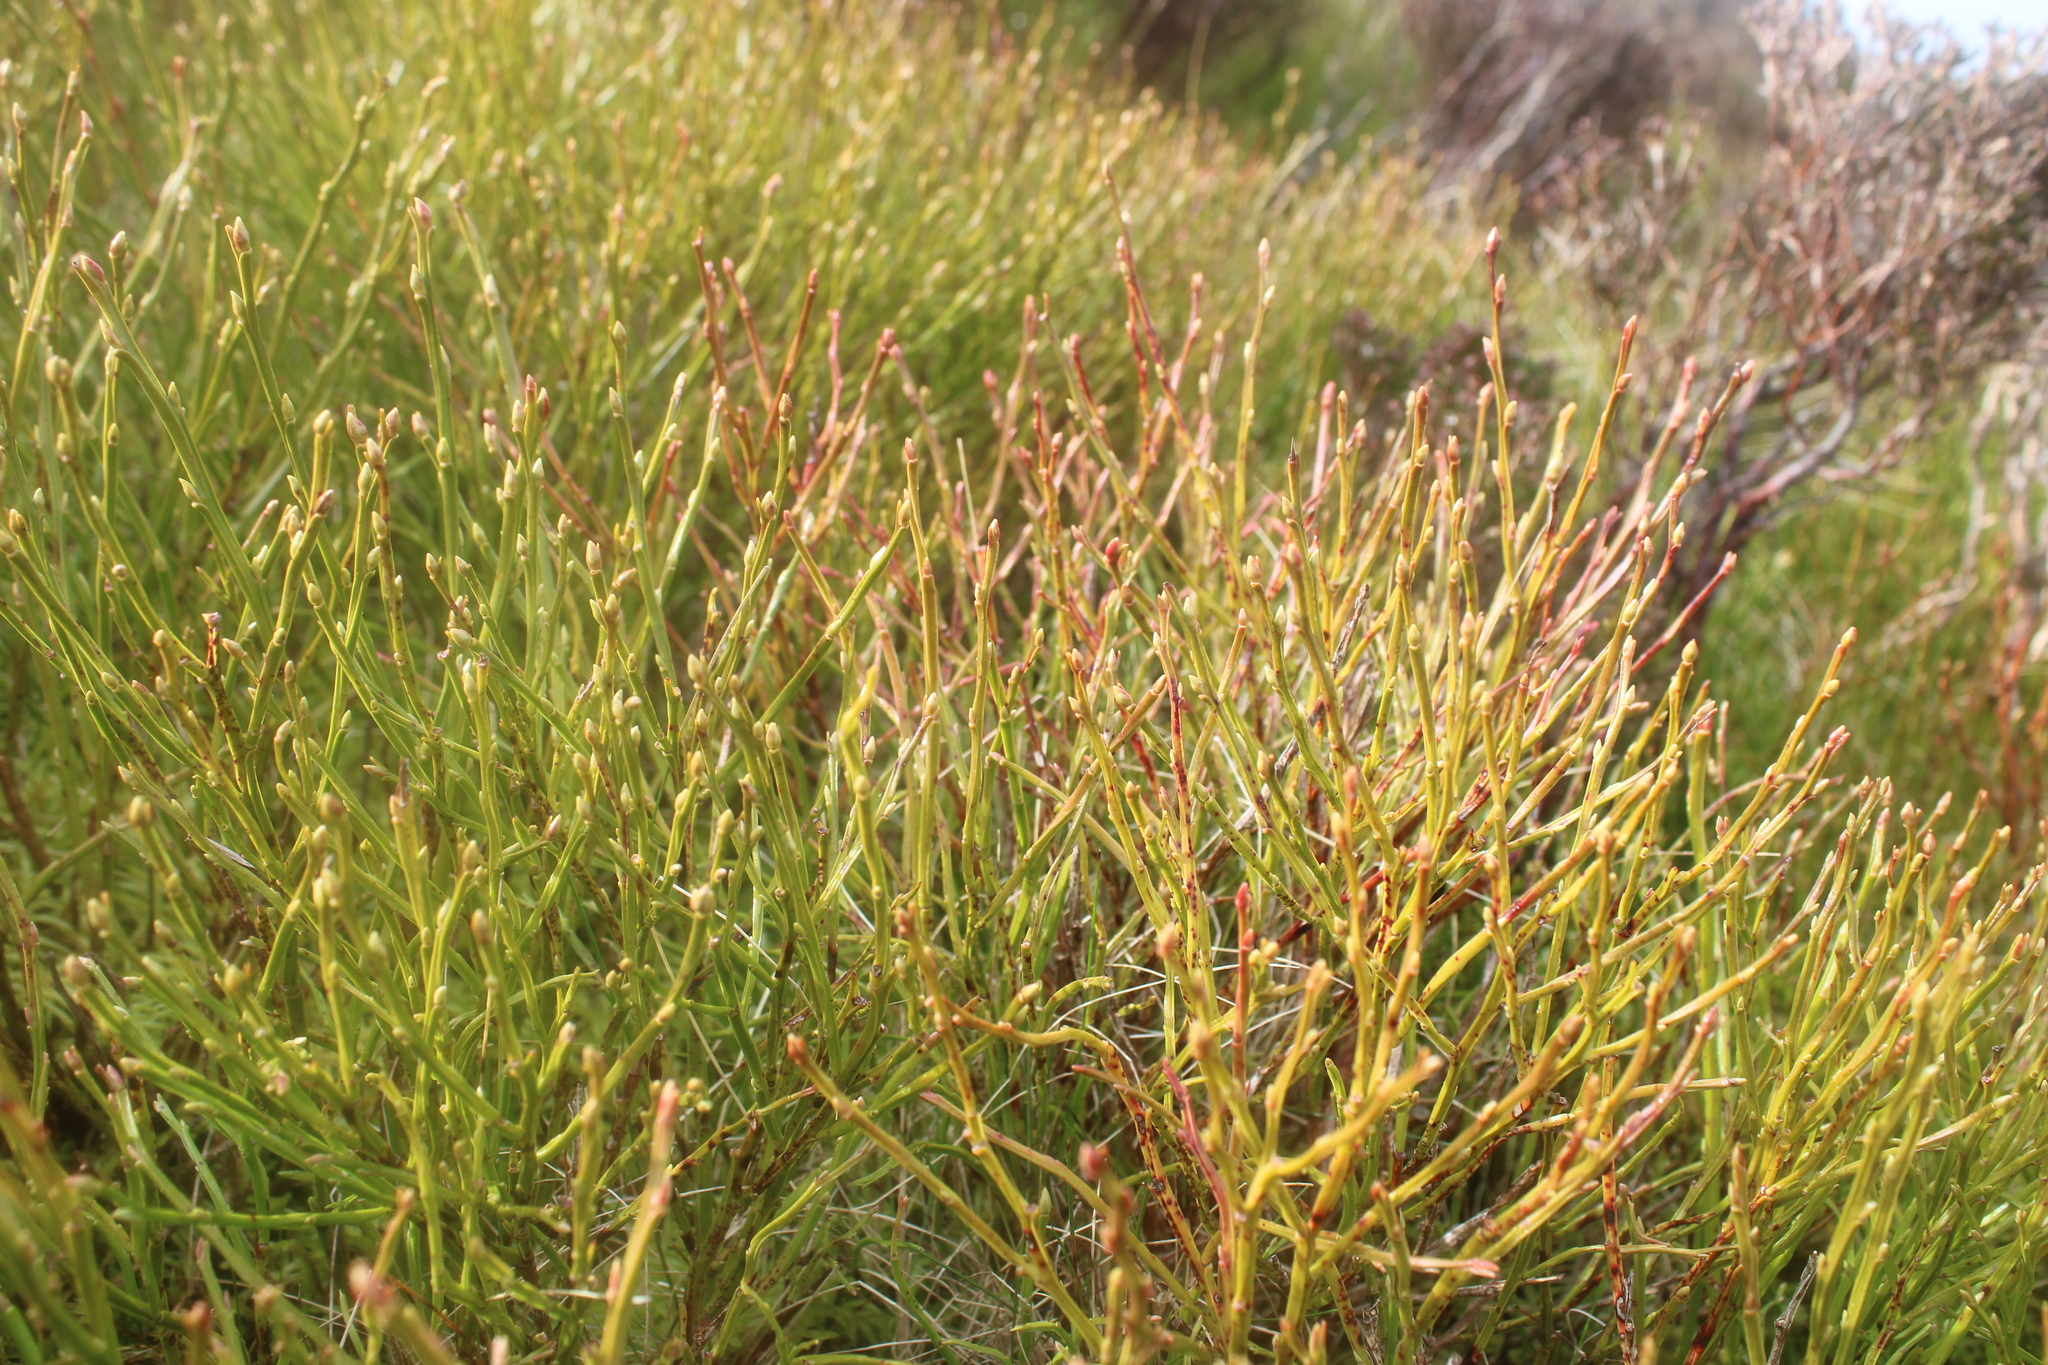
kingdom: Plantae
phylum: Tracheophyta
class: Magnoliopsida
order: Ericales
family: Ericaceae
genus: Vaccinium
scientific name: Vaccinium myrtillus
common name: Bilberry
